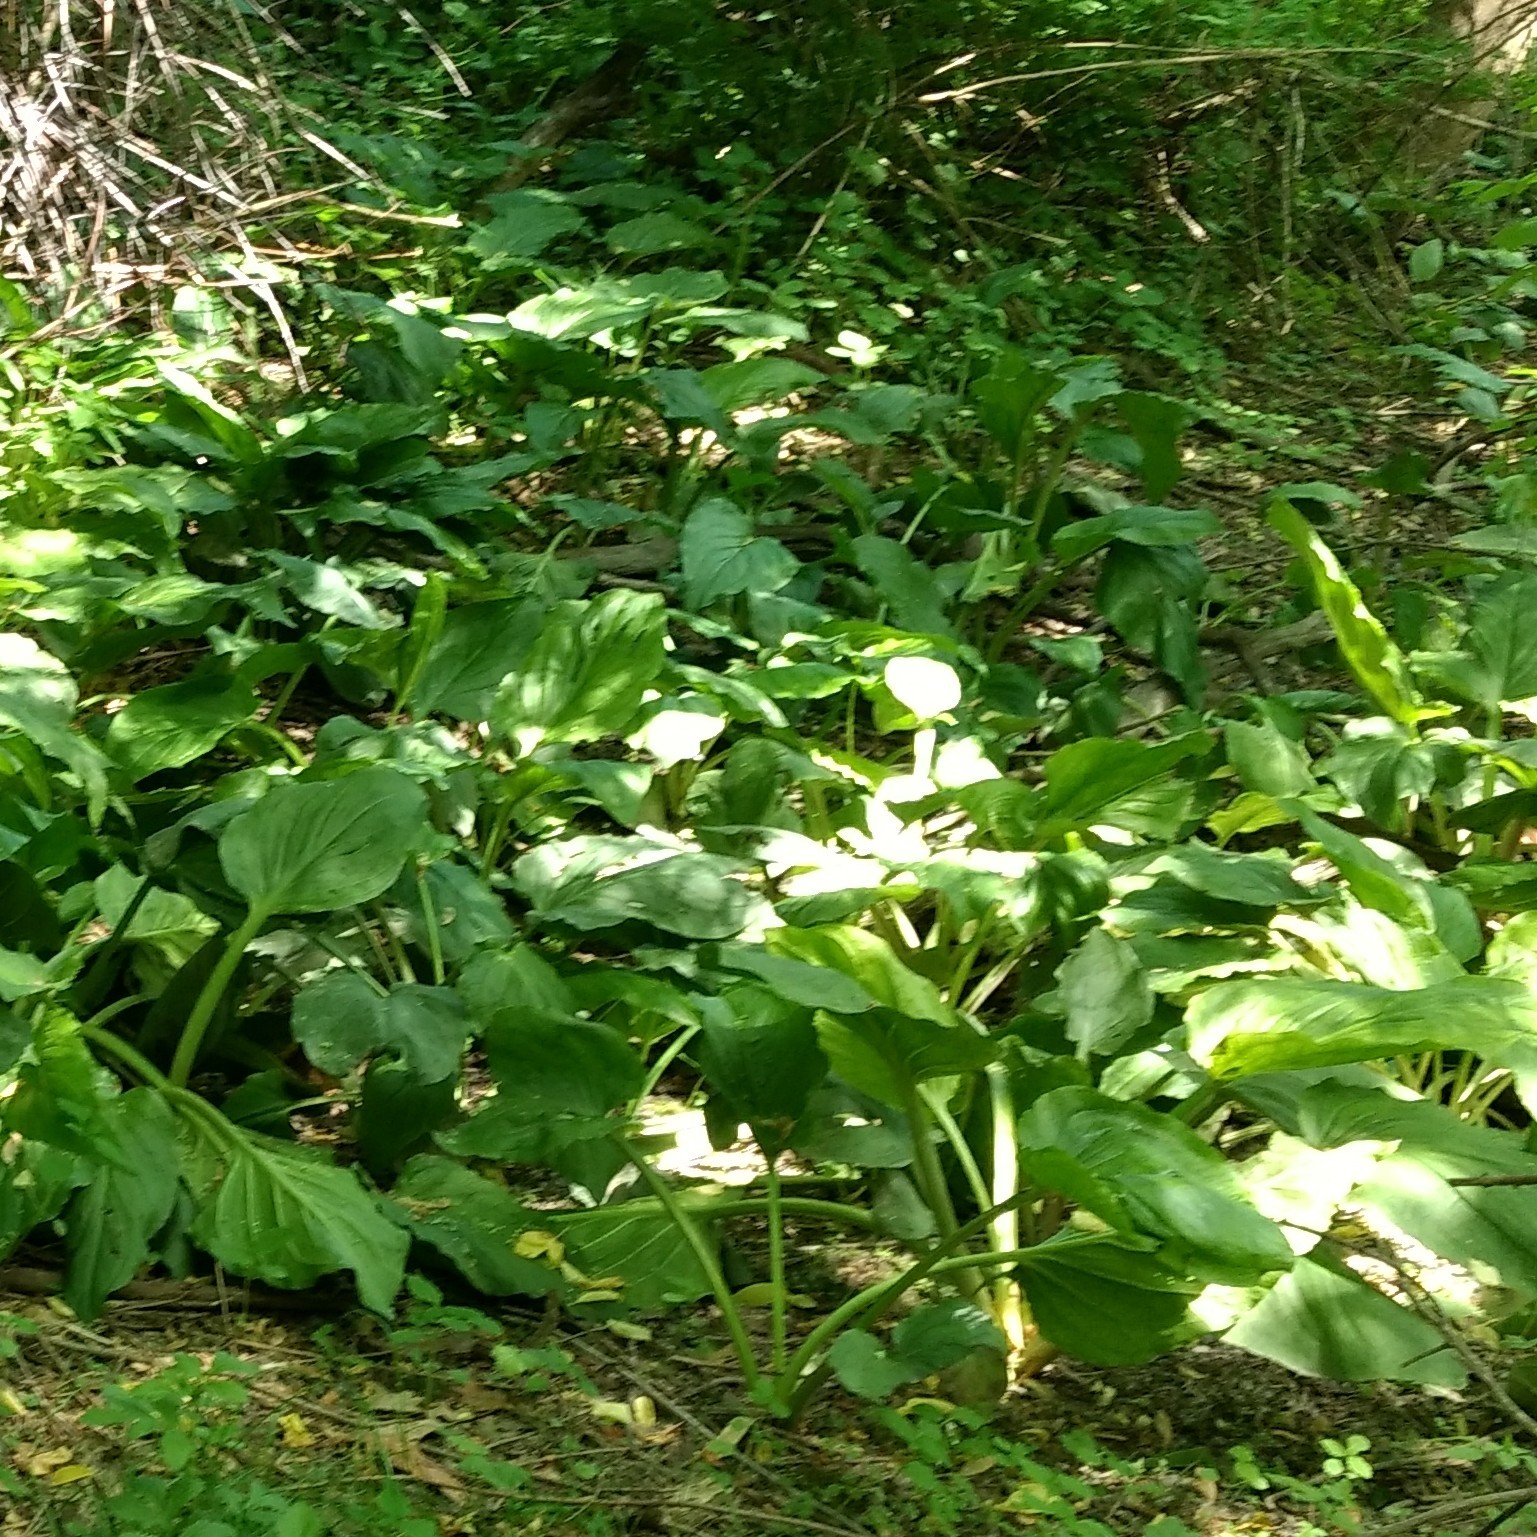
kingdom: Plantae
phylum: Tracheophyta
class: Liliopsida
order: Alismatales
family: Araceae
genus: Symplocarpus
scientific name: Symplocarpus foetidus
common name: Eastern skunk cabbage
